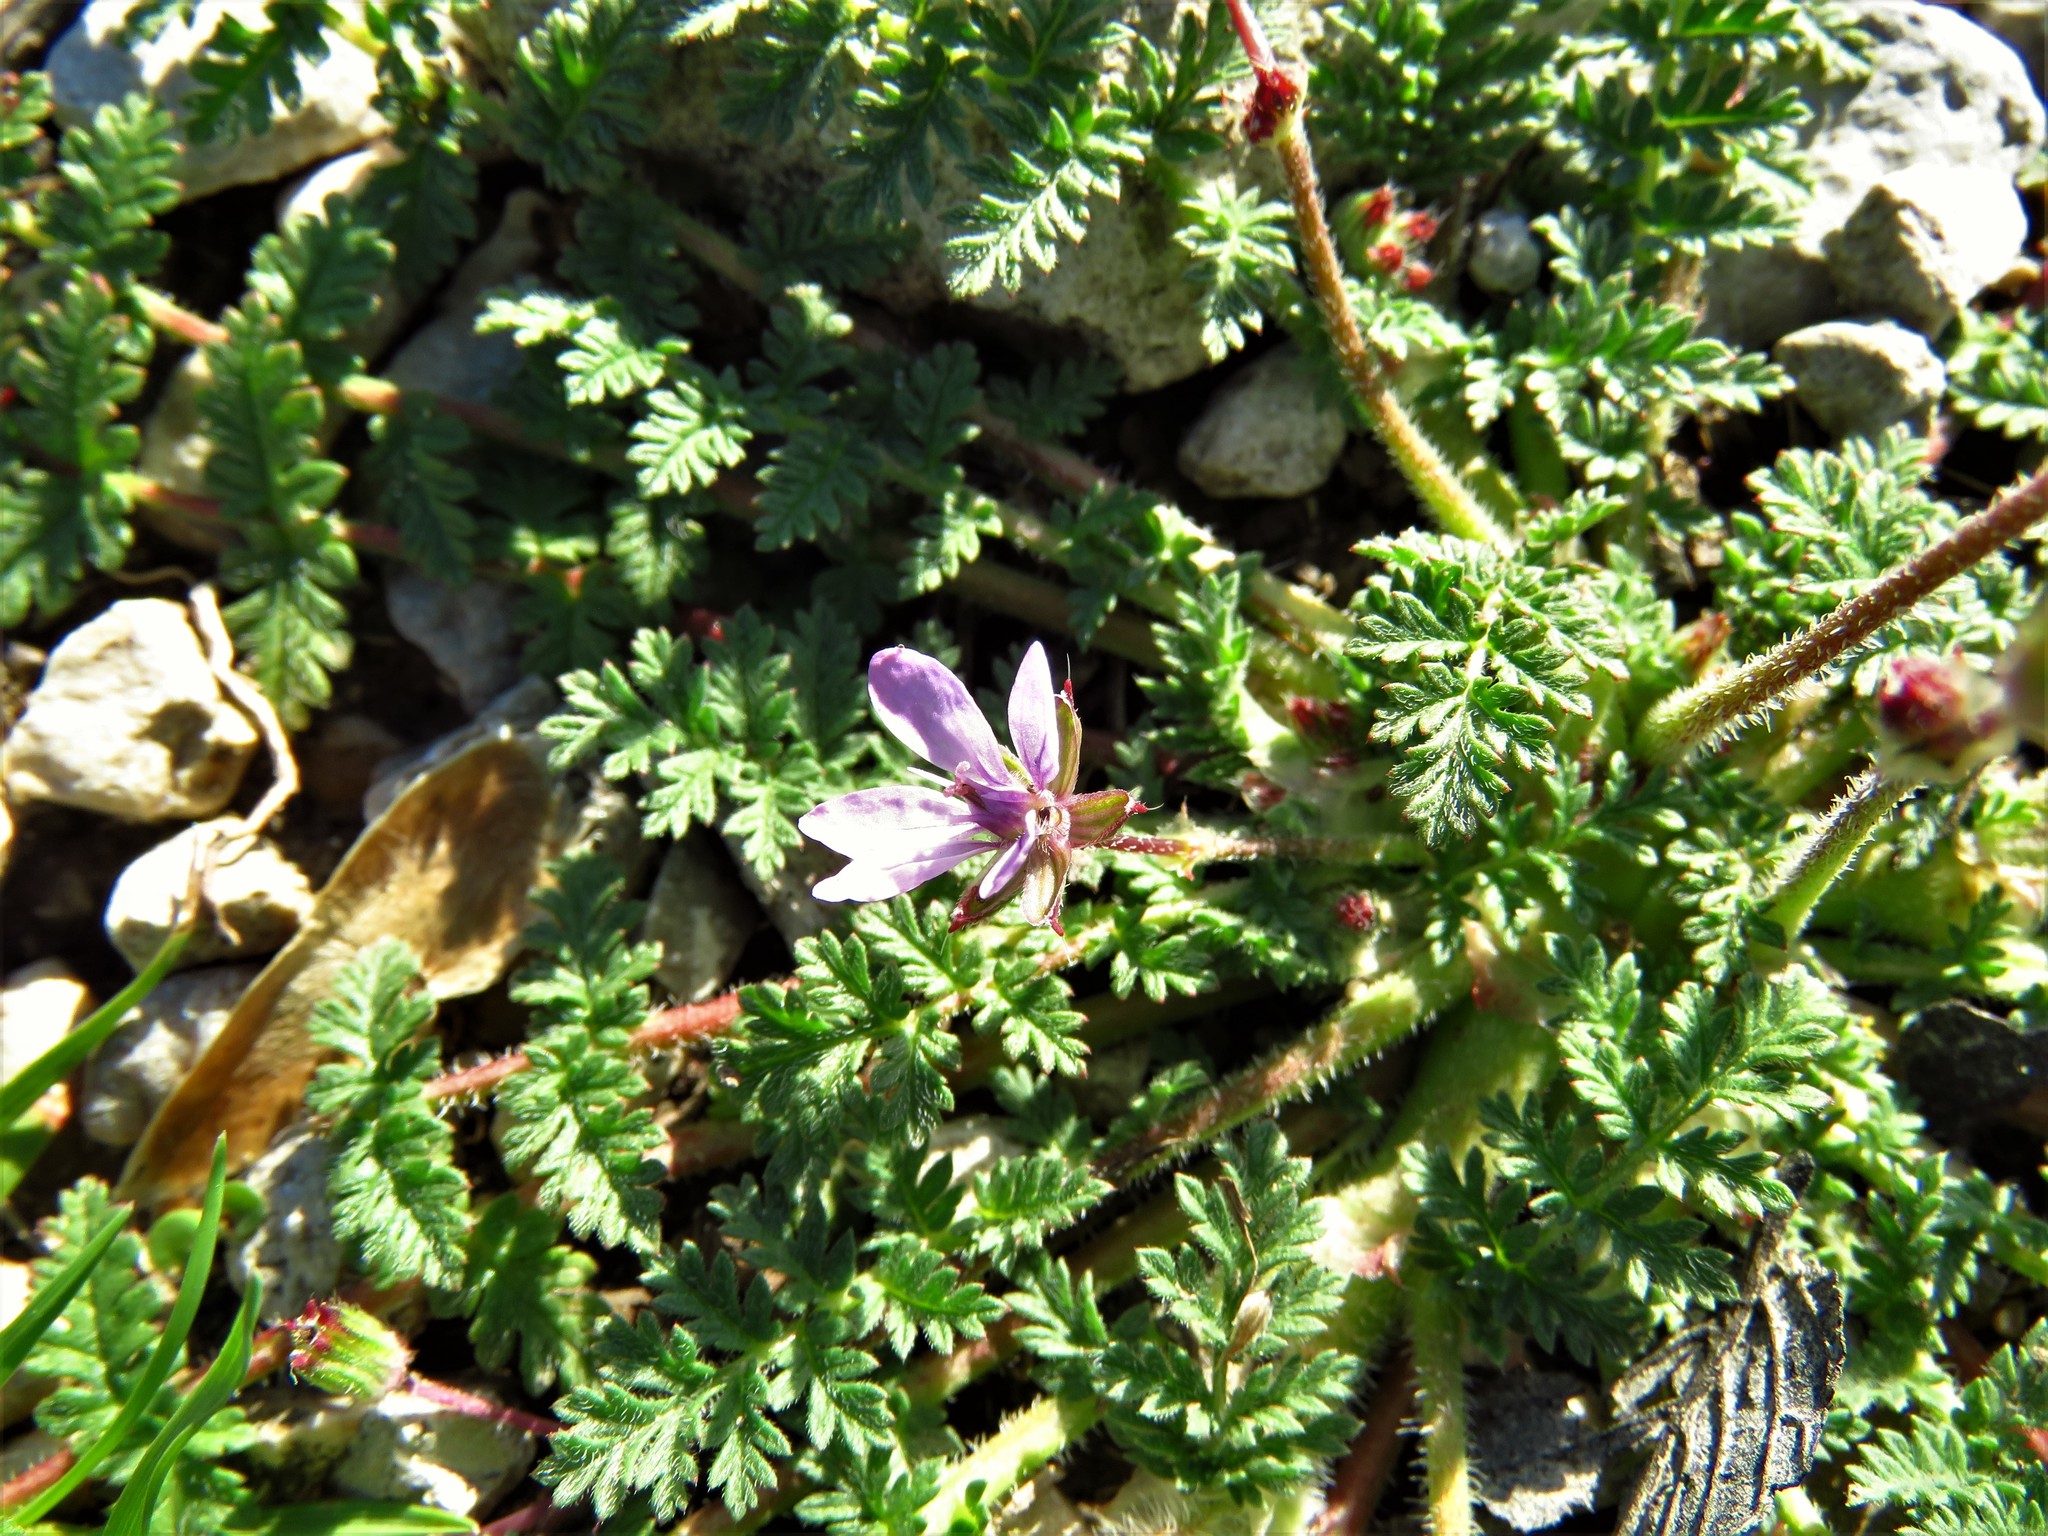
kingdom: Plantae
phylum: Tracheophyta
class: Magnoliopsida
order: Geraniales
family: Geraniaceae
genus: Erodium
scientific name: Erodium cicutarium
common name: Common stork's-bill
